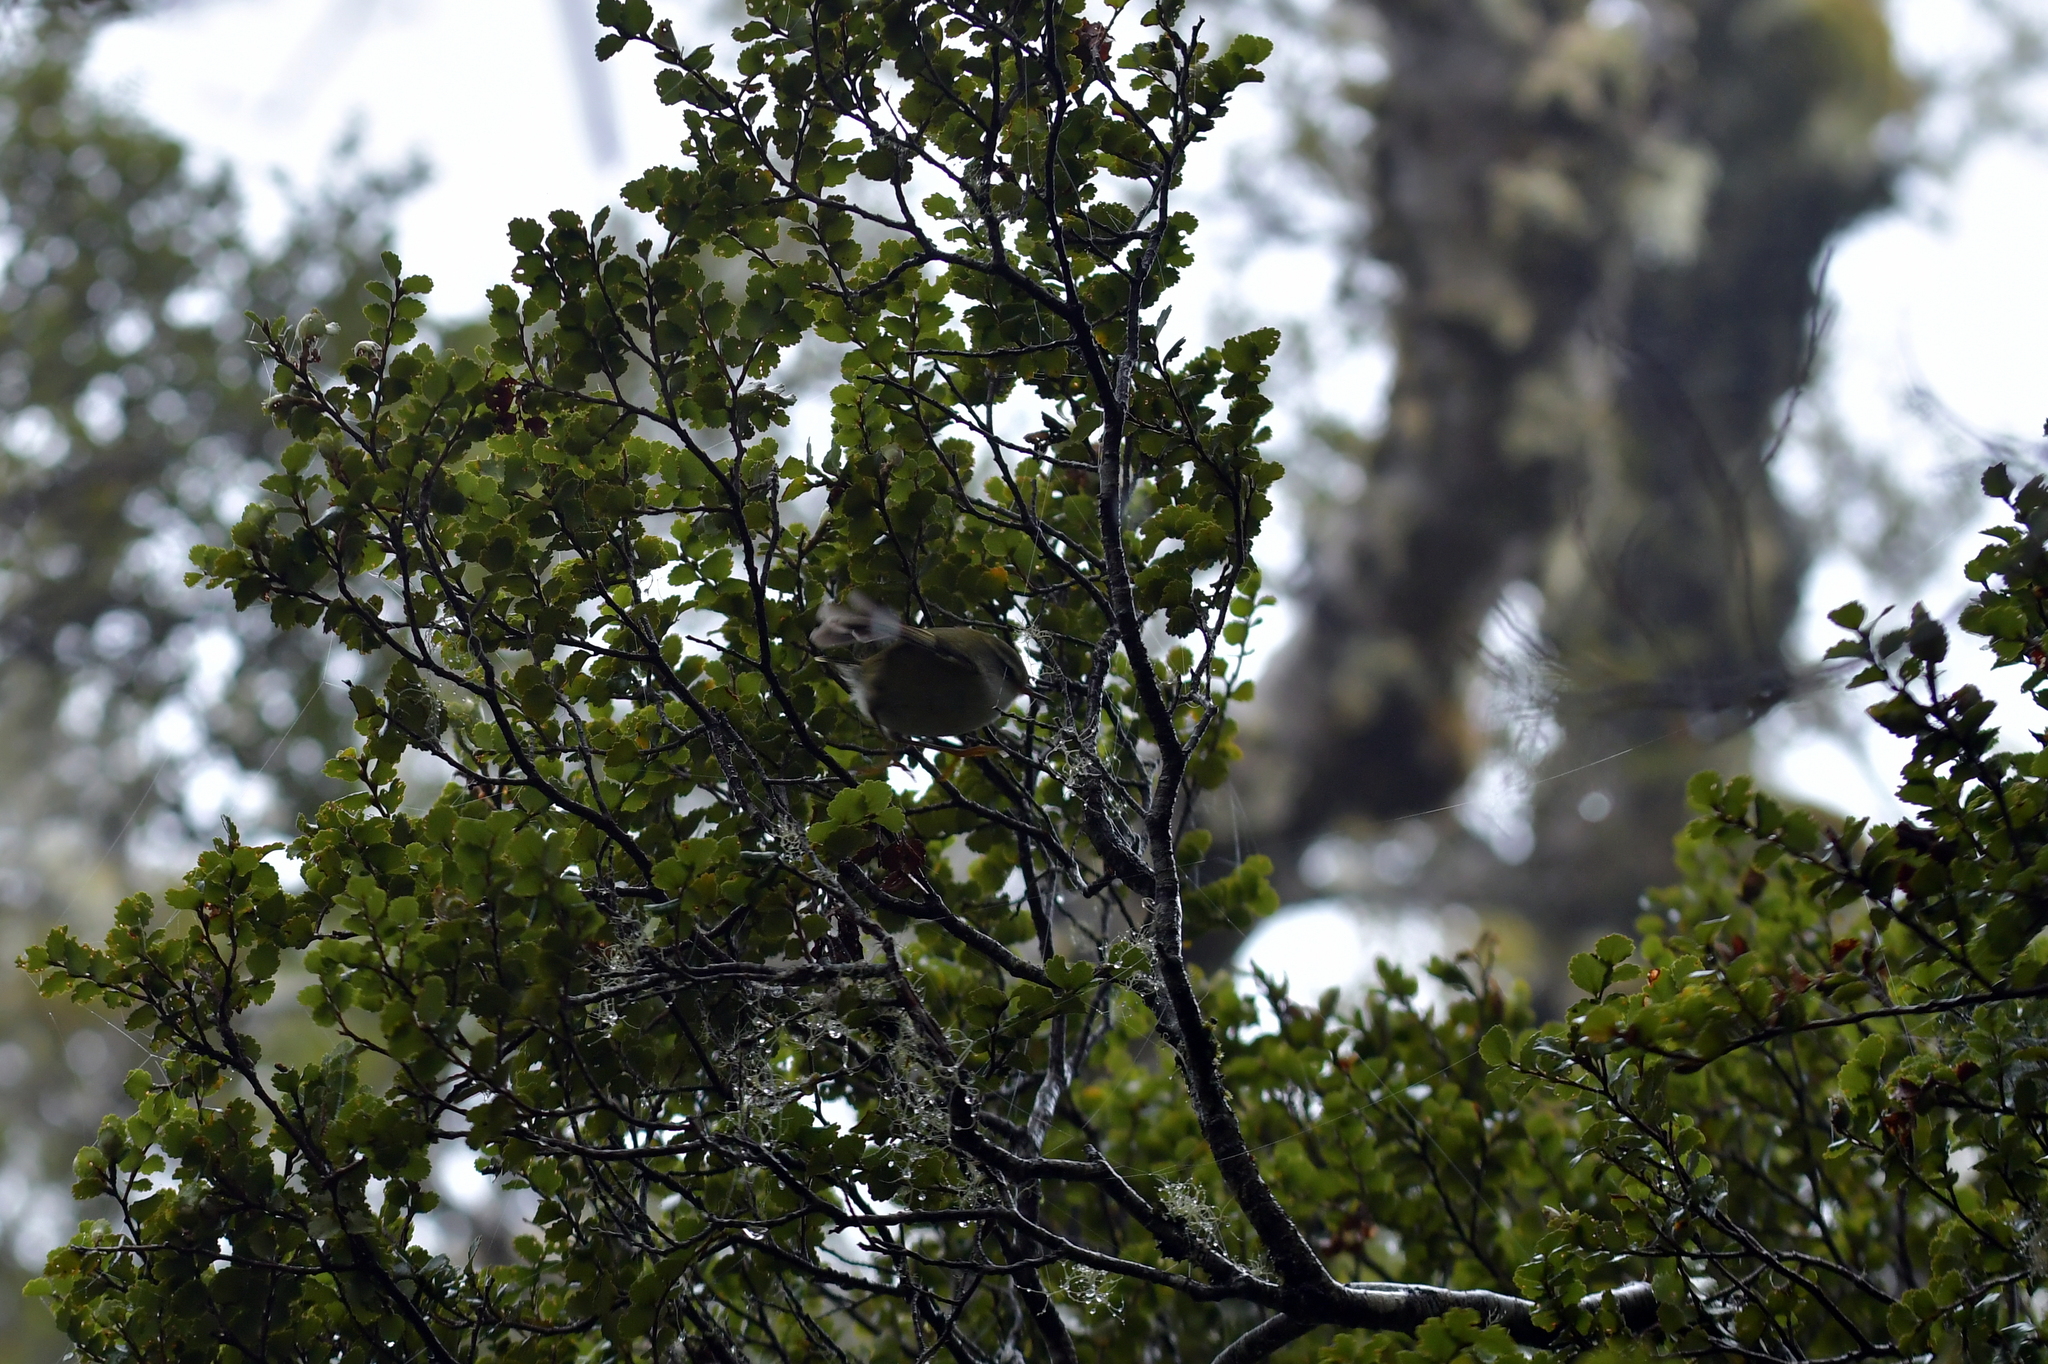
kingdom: Animalia
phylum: Chordata
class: Aves
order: Passeriformes
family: Acanthisittidae
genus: Acanthisitta
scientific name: Acanthisitta chloris
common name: Rifleman
